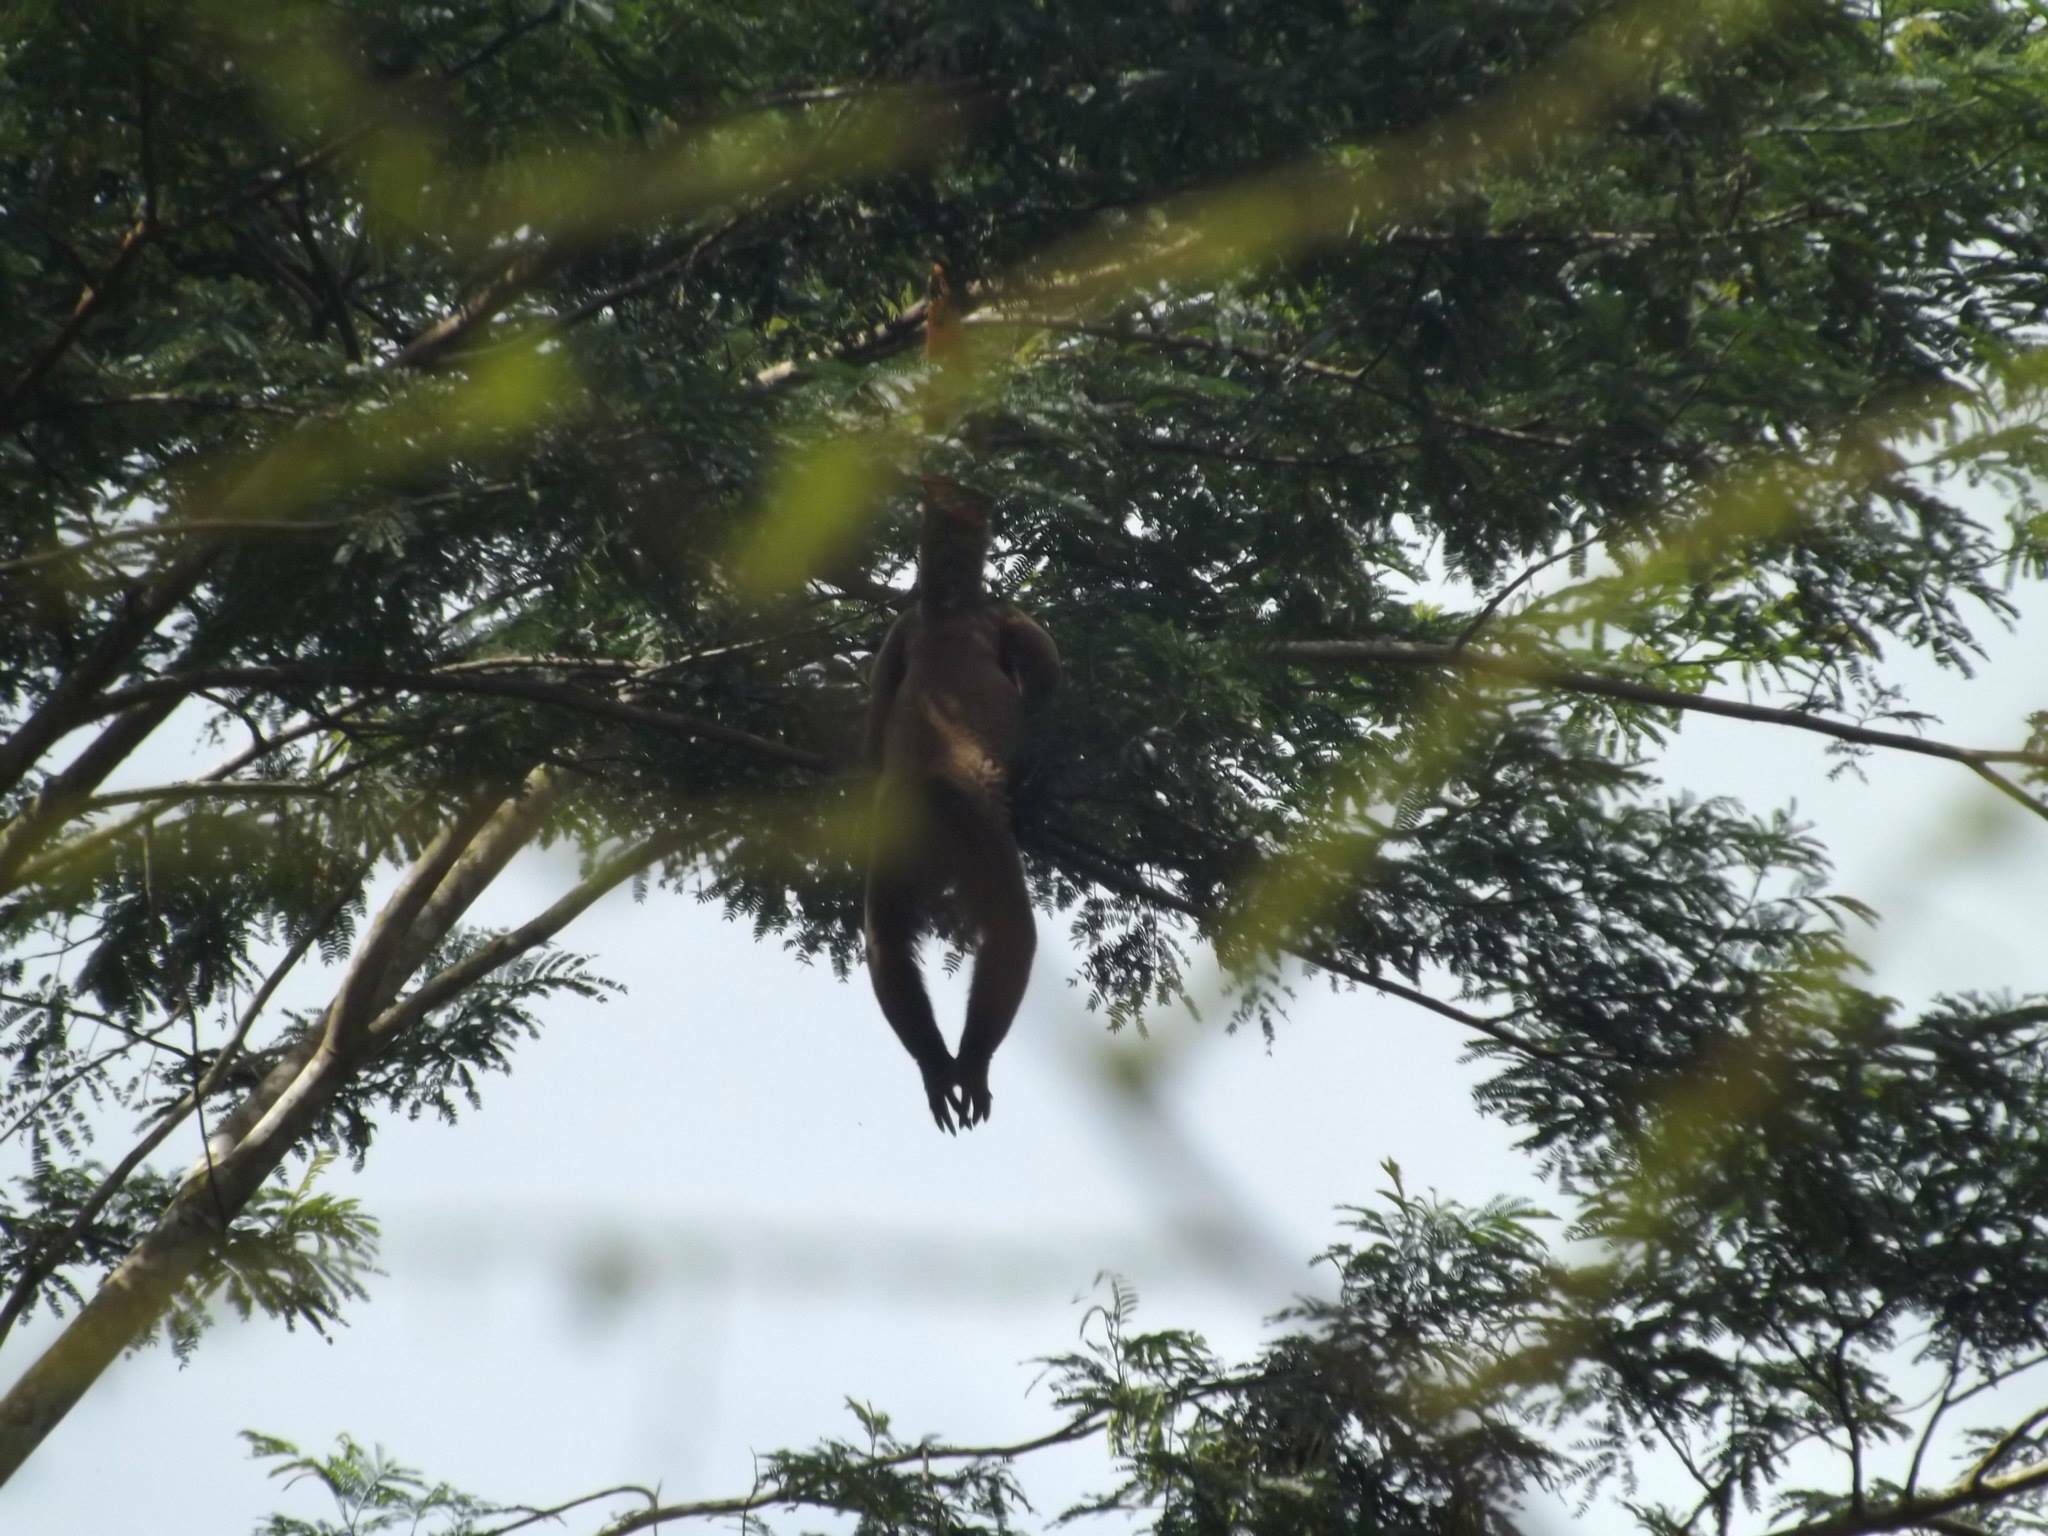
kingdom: Animalia
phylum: Chordata
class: Mammalia
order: Primates
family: Atelidae
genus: Lagothrix
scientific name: Lagothrix lagothricha
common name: Brown woolly monkey
